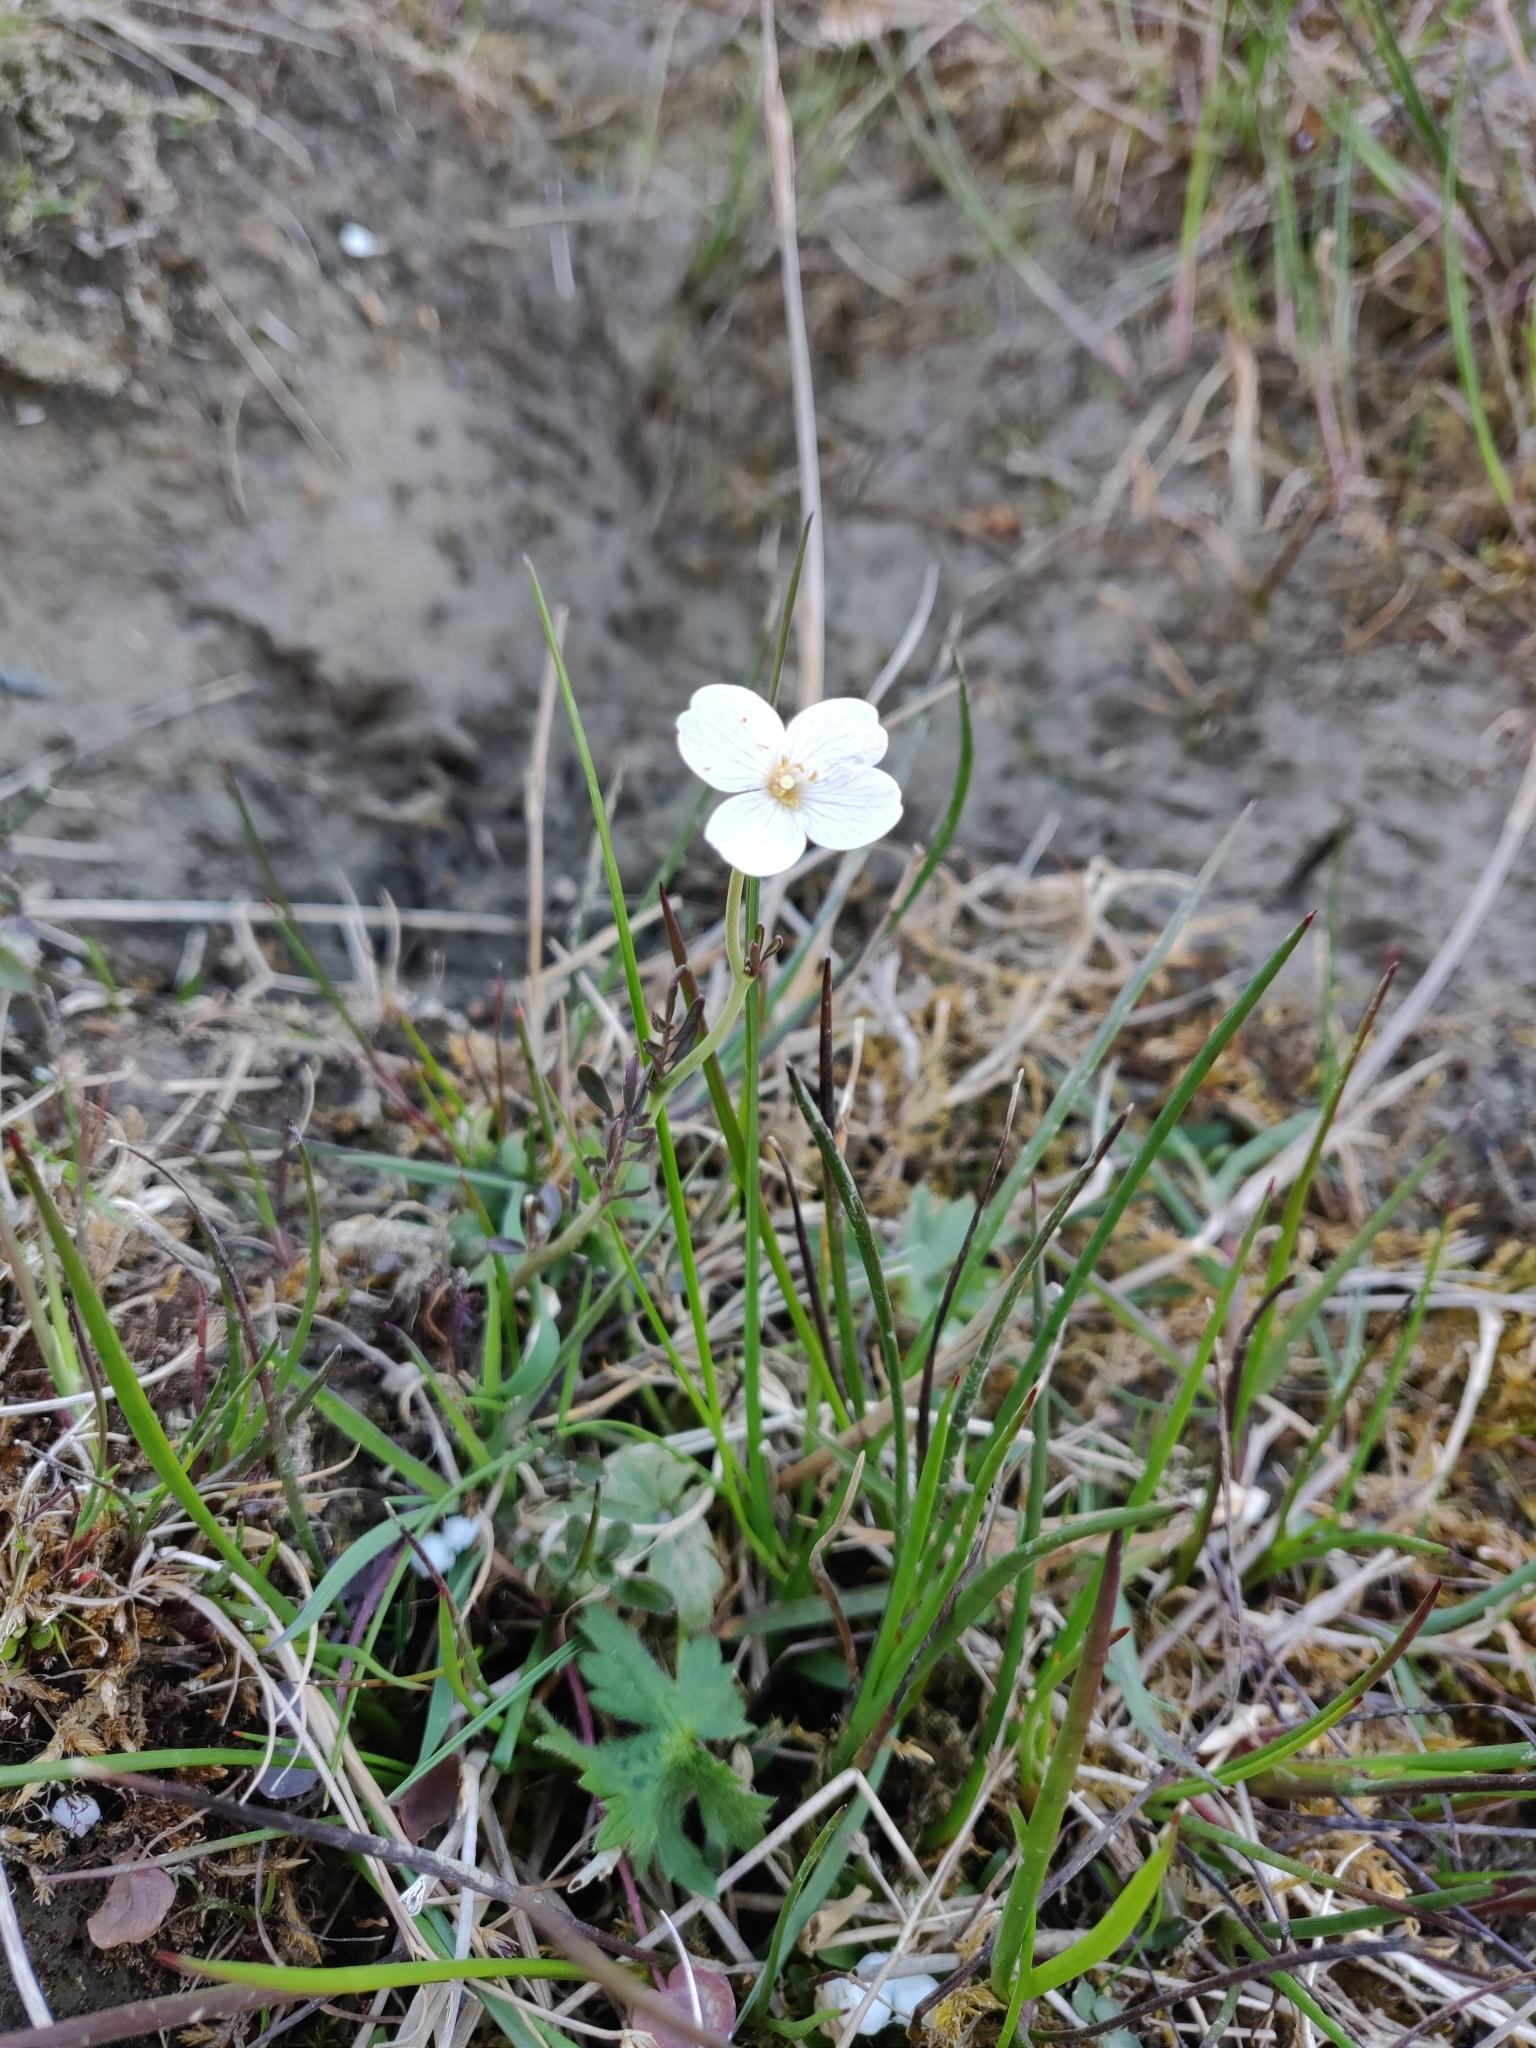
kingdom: Plantae
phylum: Tracheophyta
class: Magnoliopsida
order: Brassicales
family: Brassicaceae
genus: Cardamine
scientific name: Cardamine pratensis
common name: Cuckoo flower
